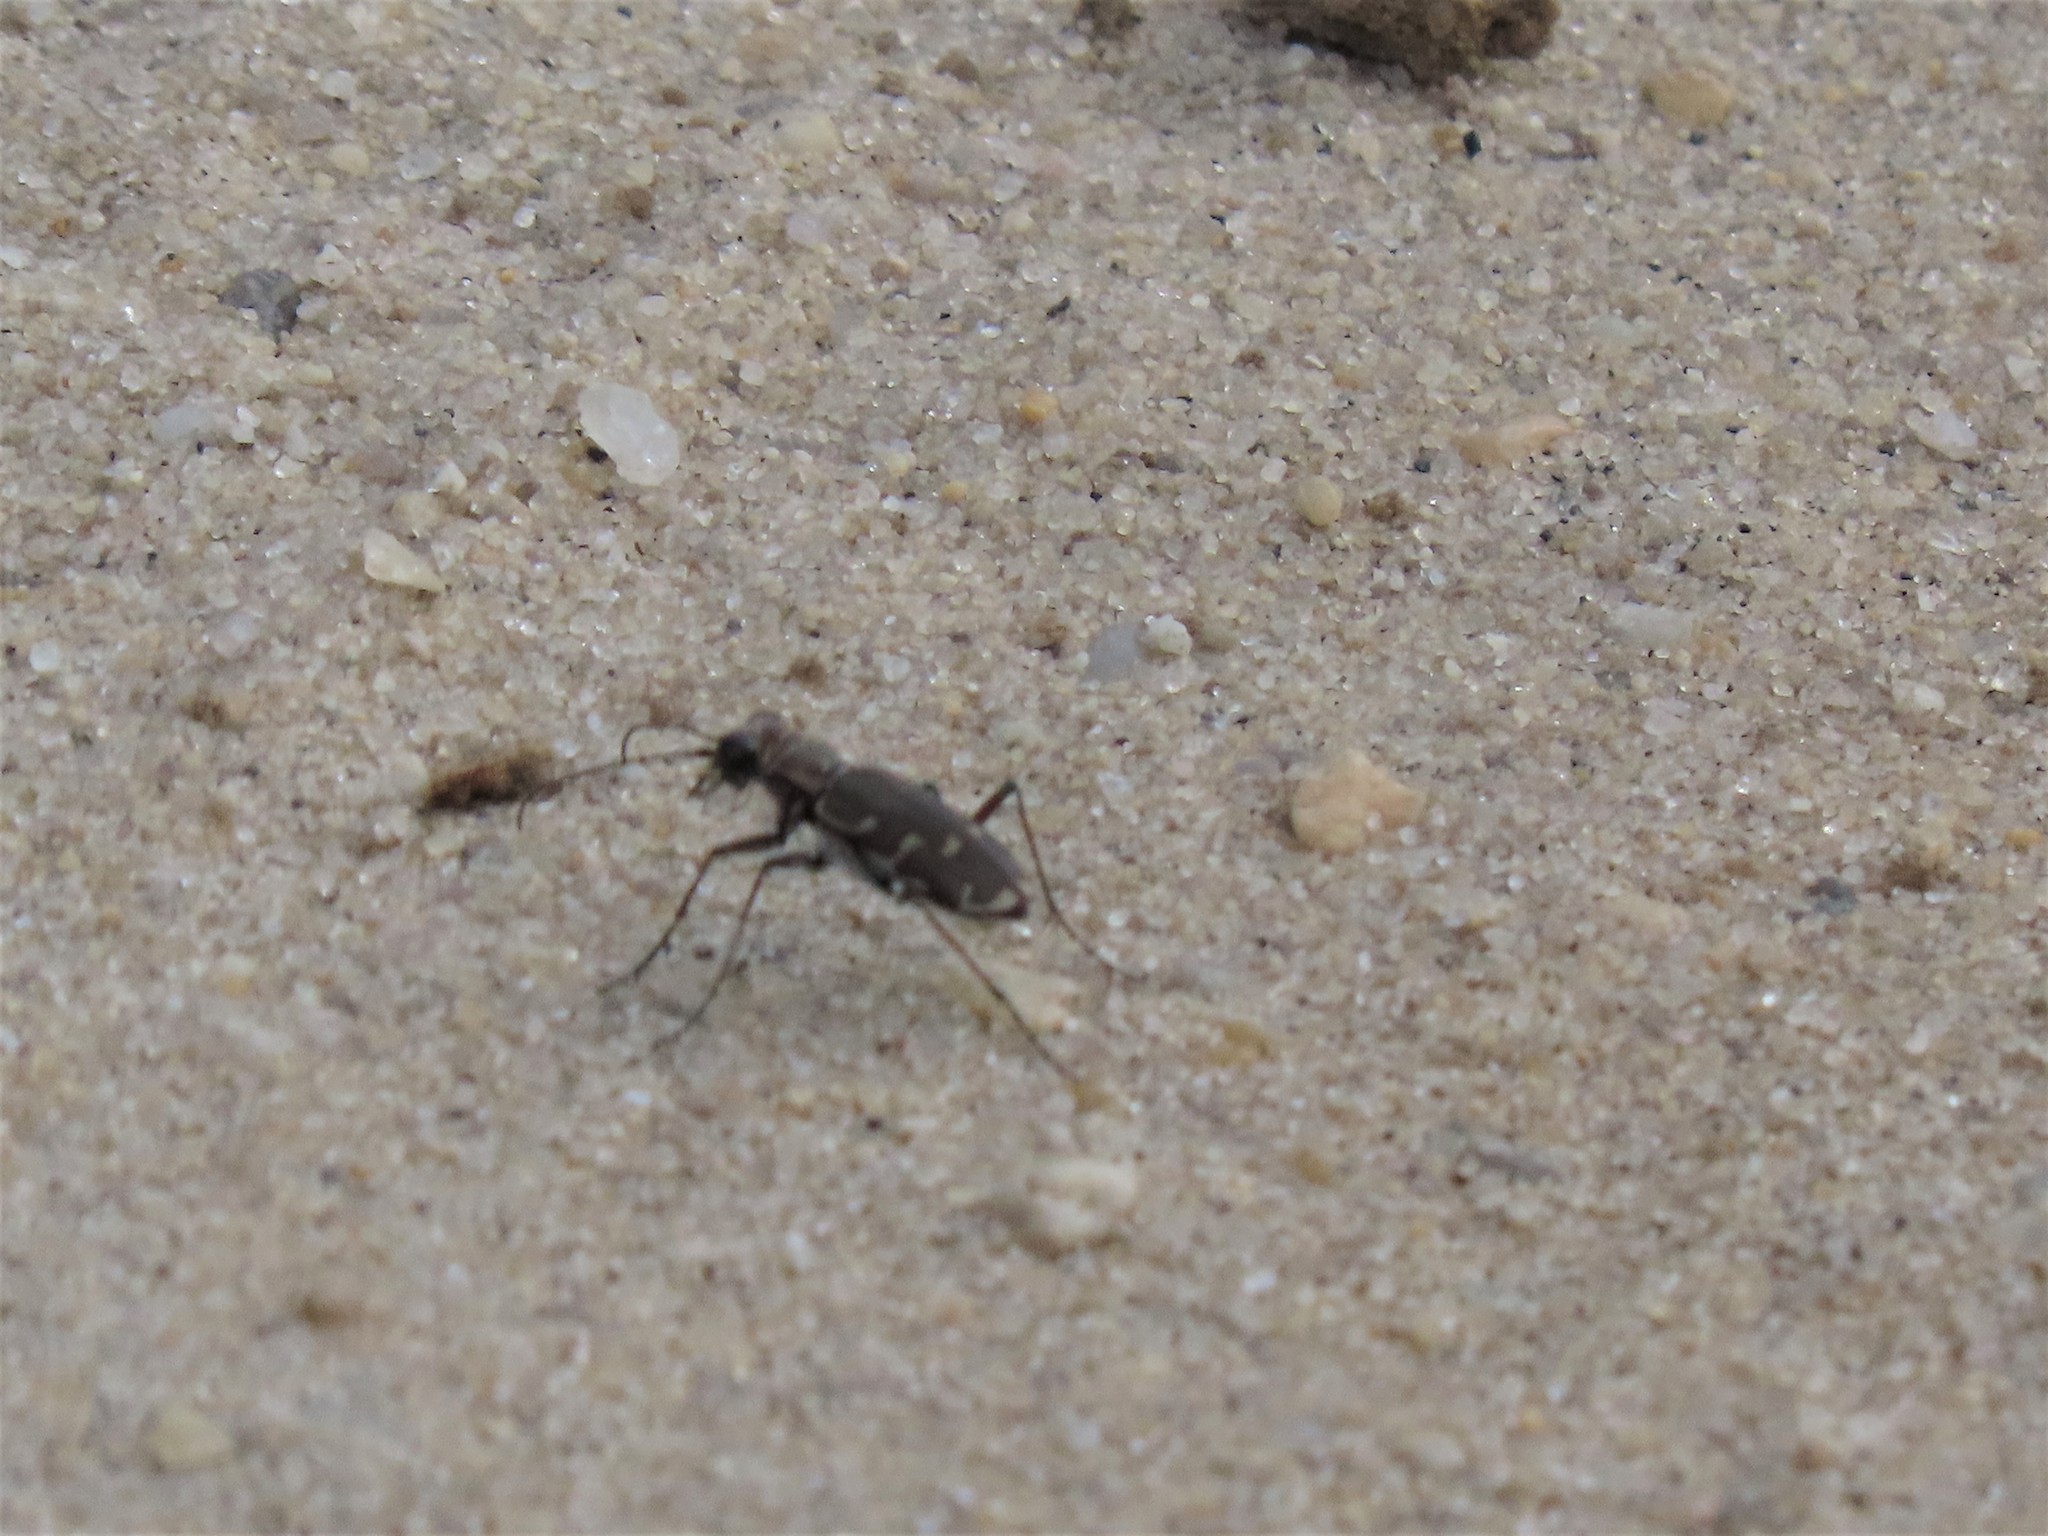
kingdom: Animalia
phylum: Arthropoda
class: Insecta
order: Coleoptera
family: Carabidae
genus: Cicindela
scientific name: Cicindela repanda
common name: Bronzed tiger beetle
